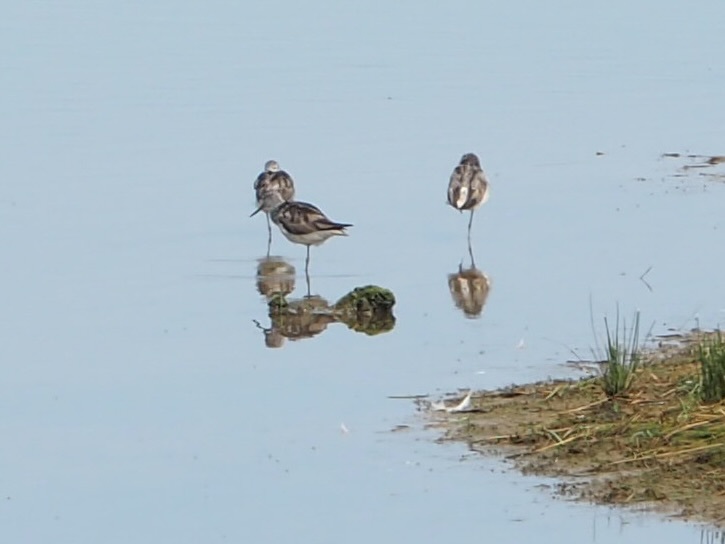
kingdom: Animalia
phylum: Chordata
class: Aves
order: Charadriiformes
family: Scolopacidae
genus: Tringa
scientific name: Tringa nebularia
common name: Common greenshank
